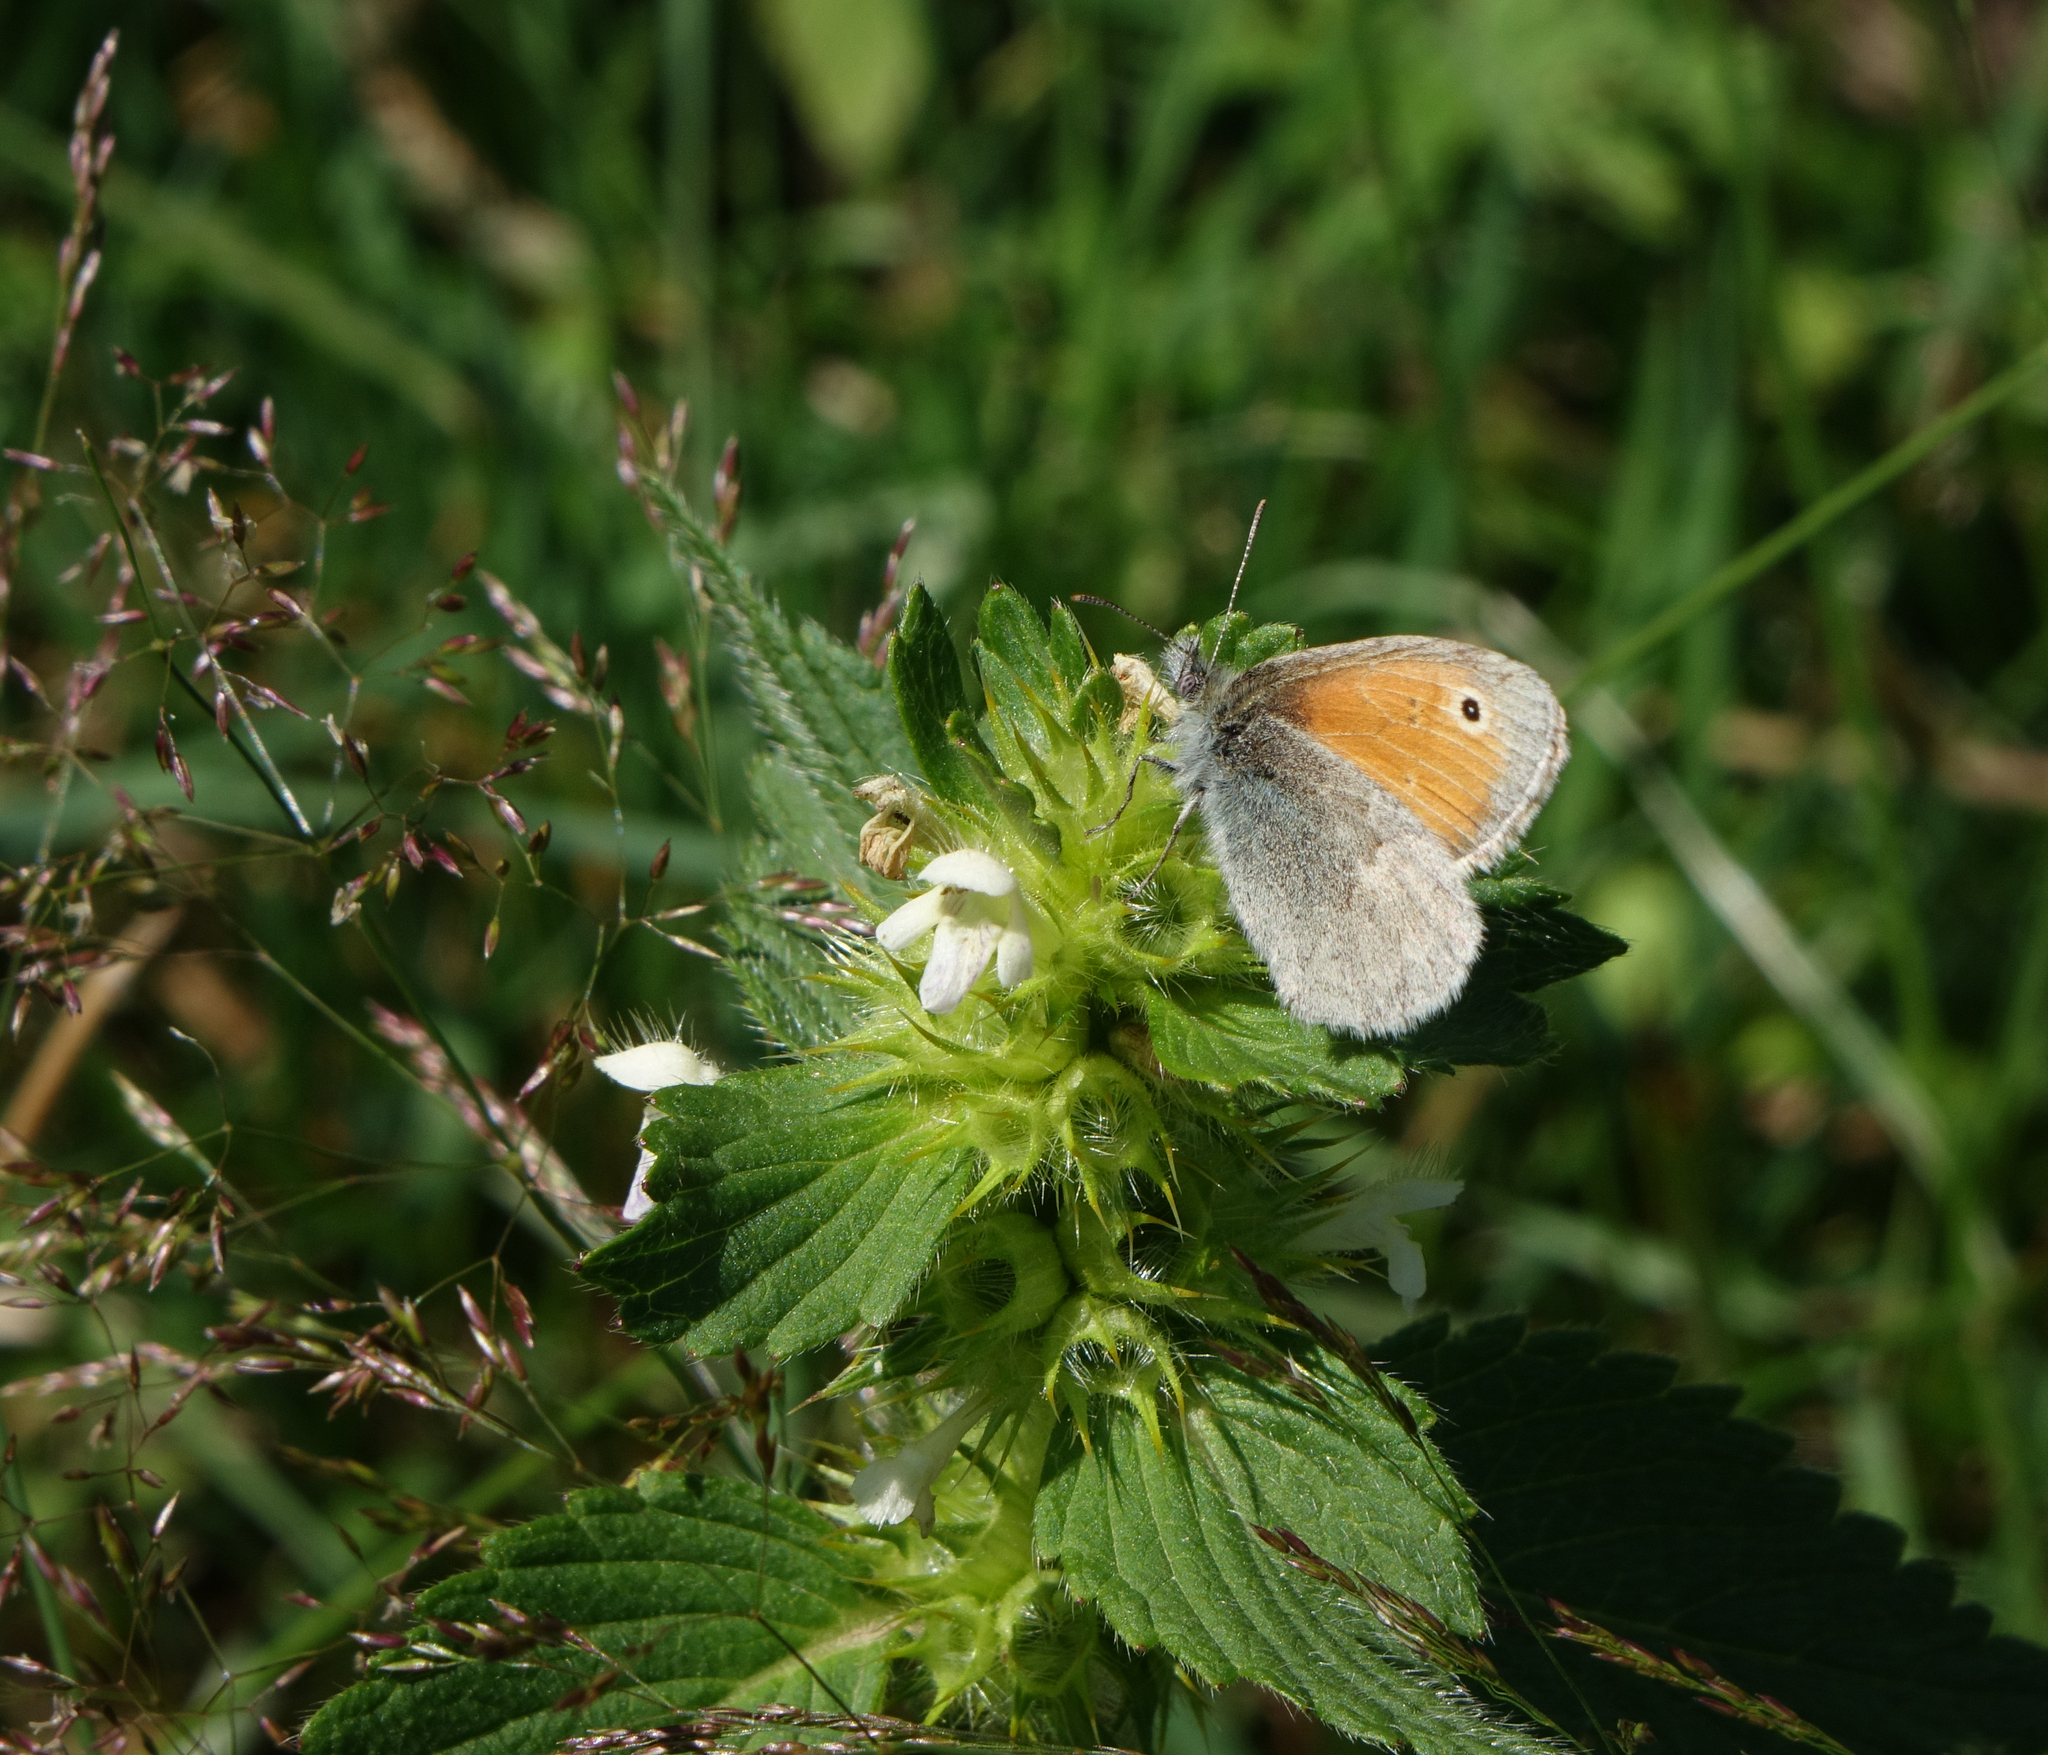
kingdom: Plantae
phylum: Tracheophyta
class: Magnoliopsida
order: Lamiales
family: Lamiaceae
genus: Galeopsis
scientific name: Galeopsis bifida
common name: Bifid hemp-nettle
